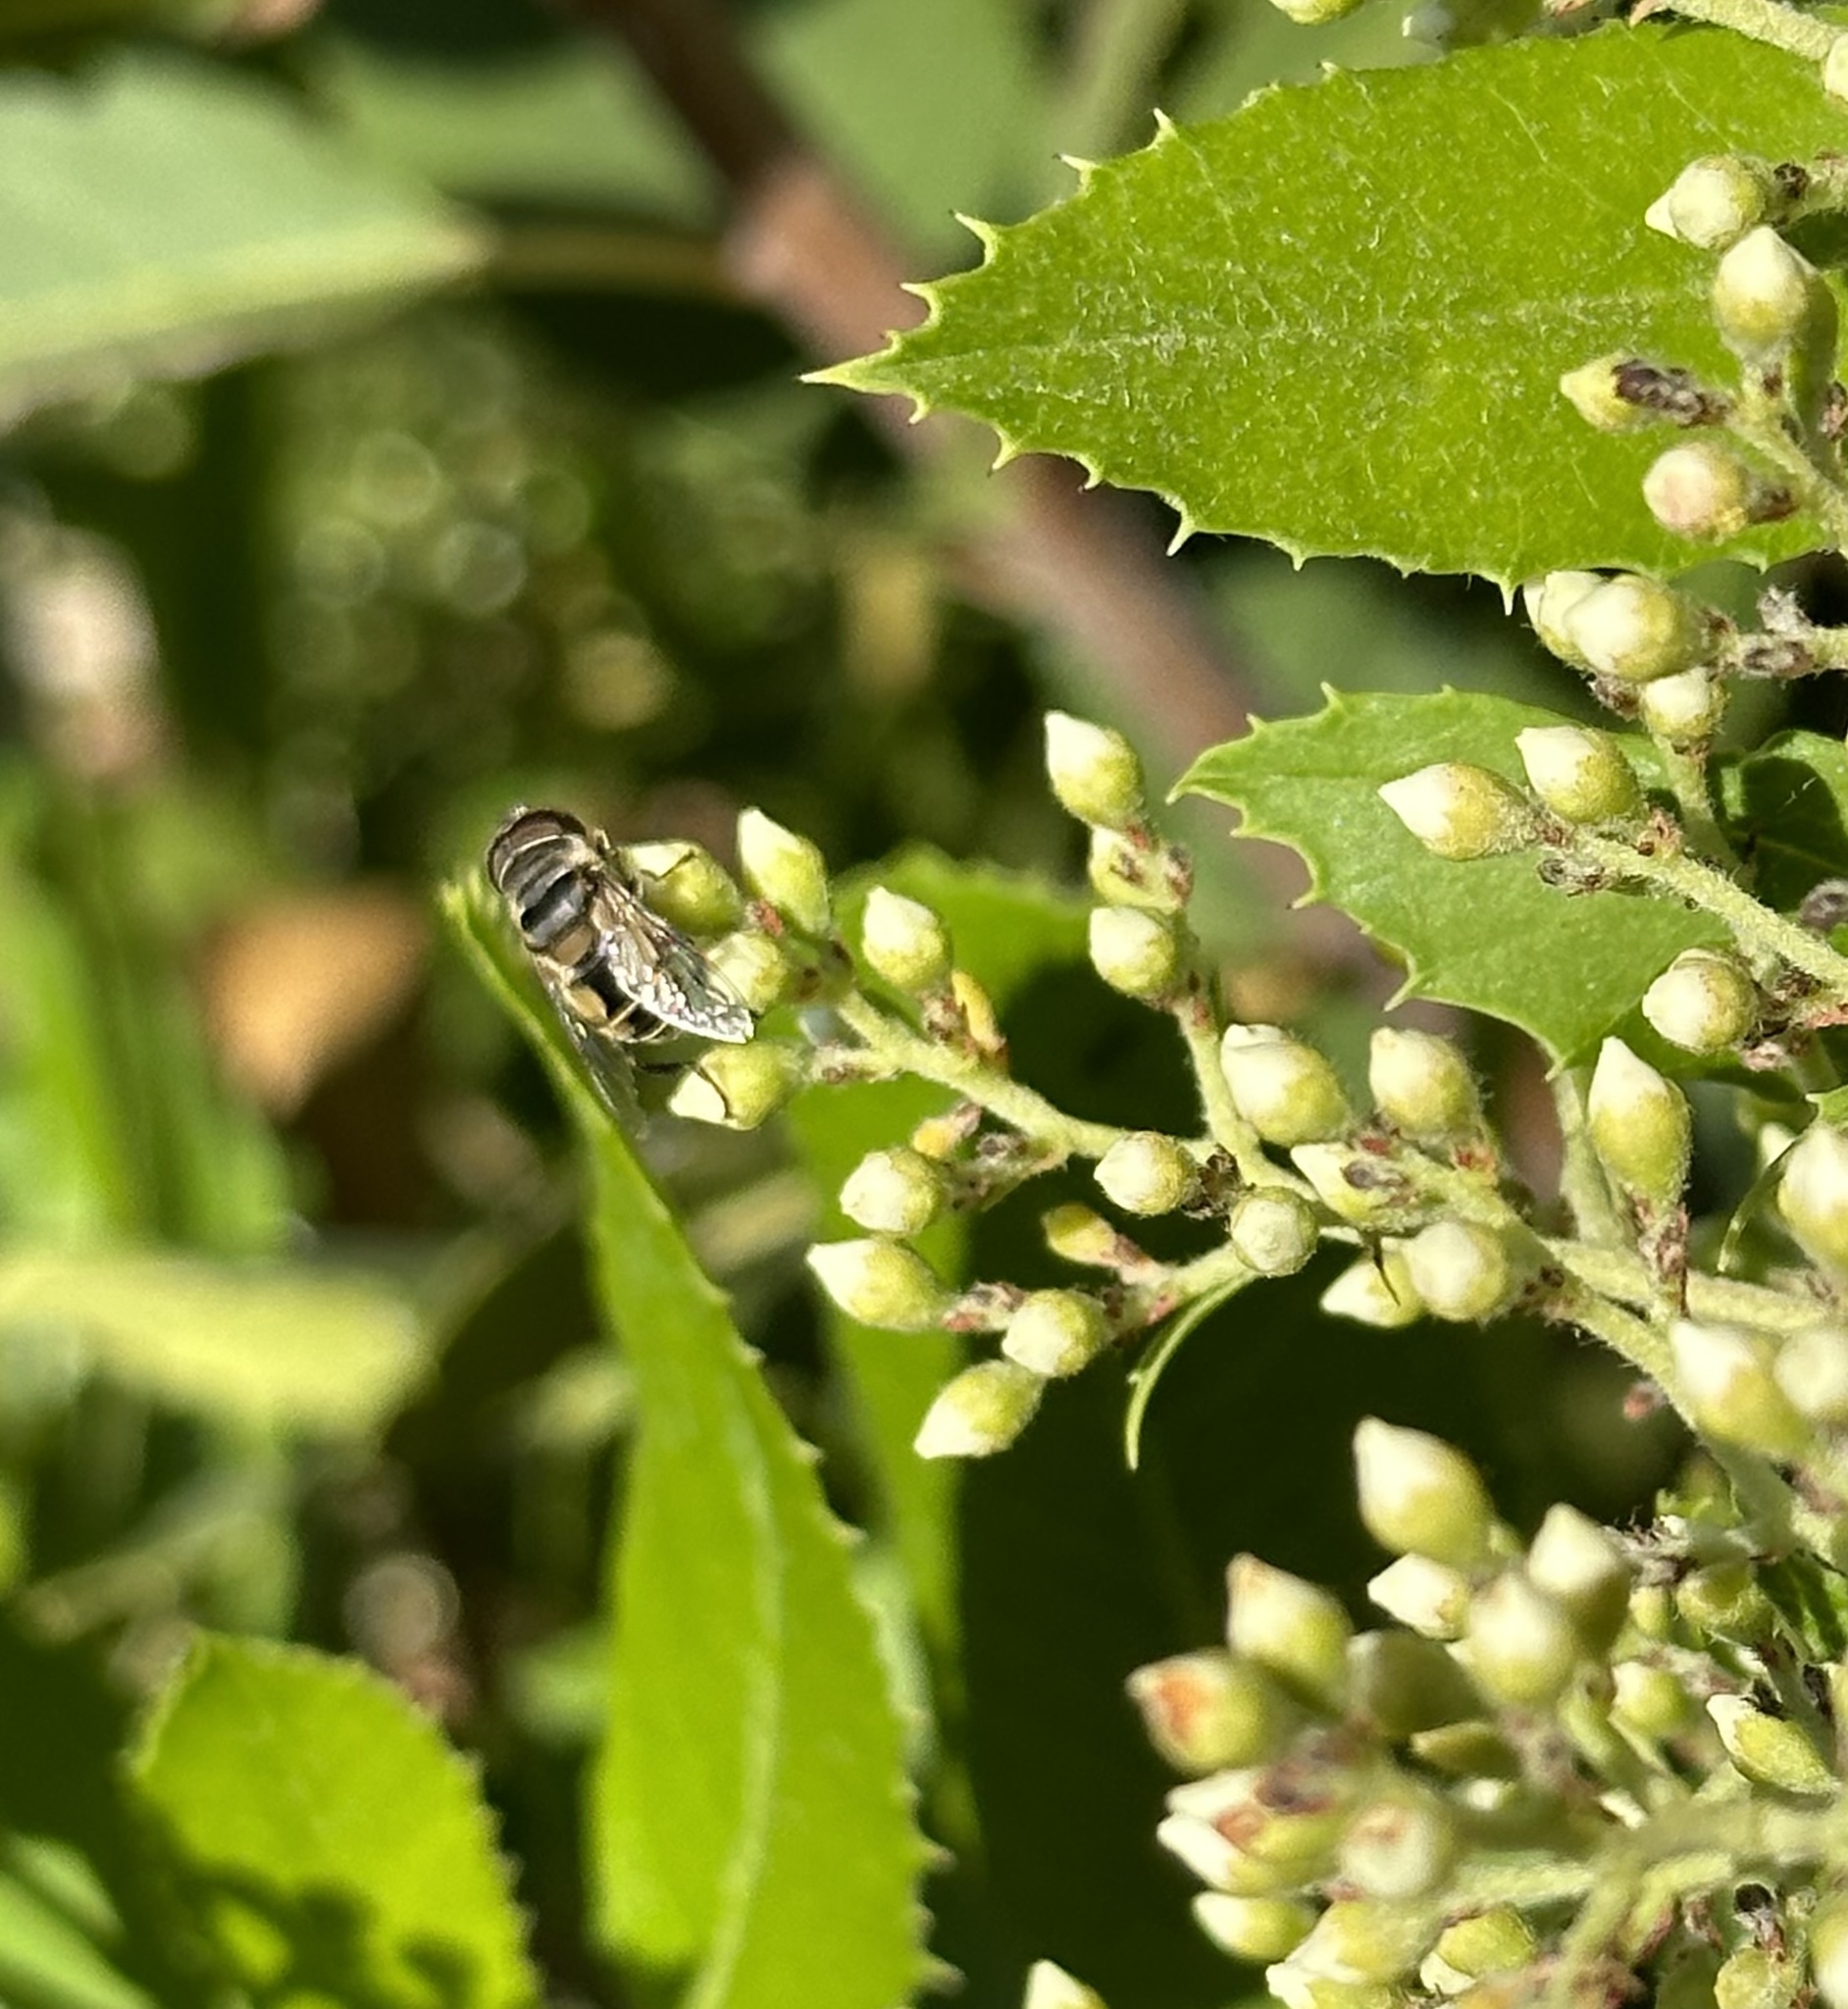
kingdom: Animalia
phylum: Arthropoda
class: Insecta
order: Diptera
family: Syrphidae
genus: Palpada
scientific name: Palpada alhambra
